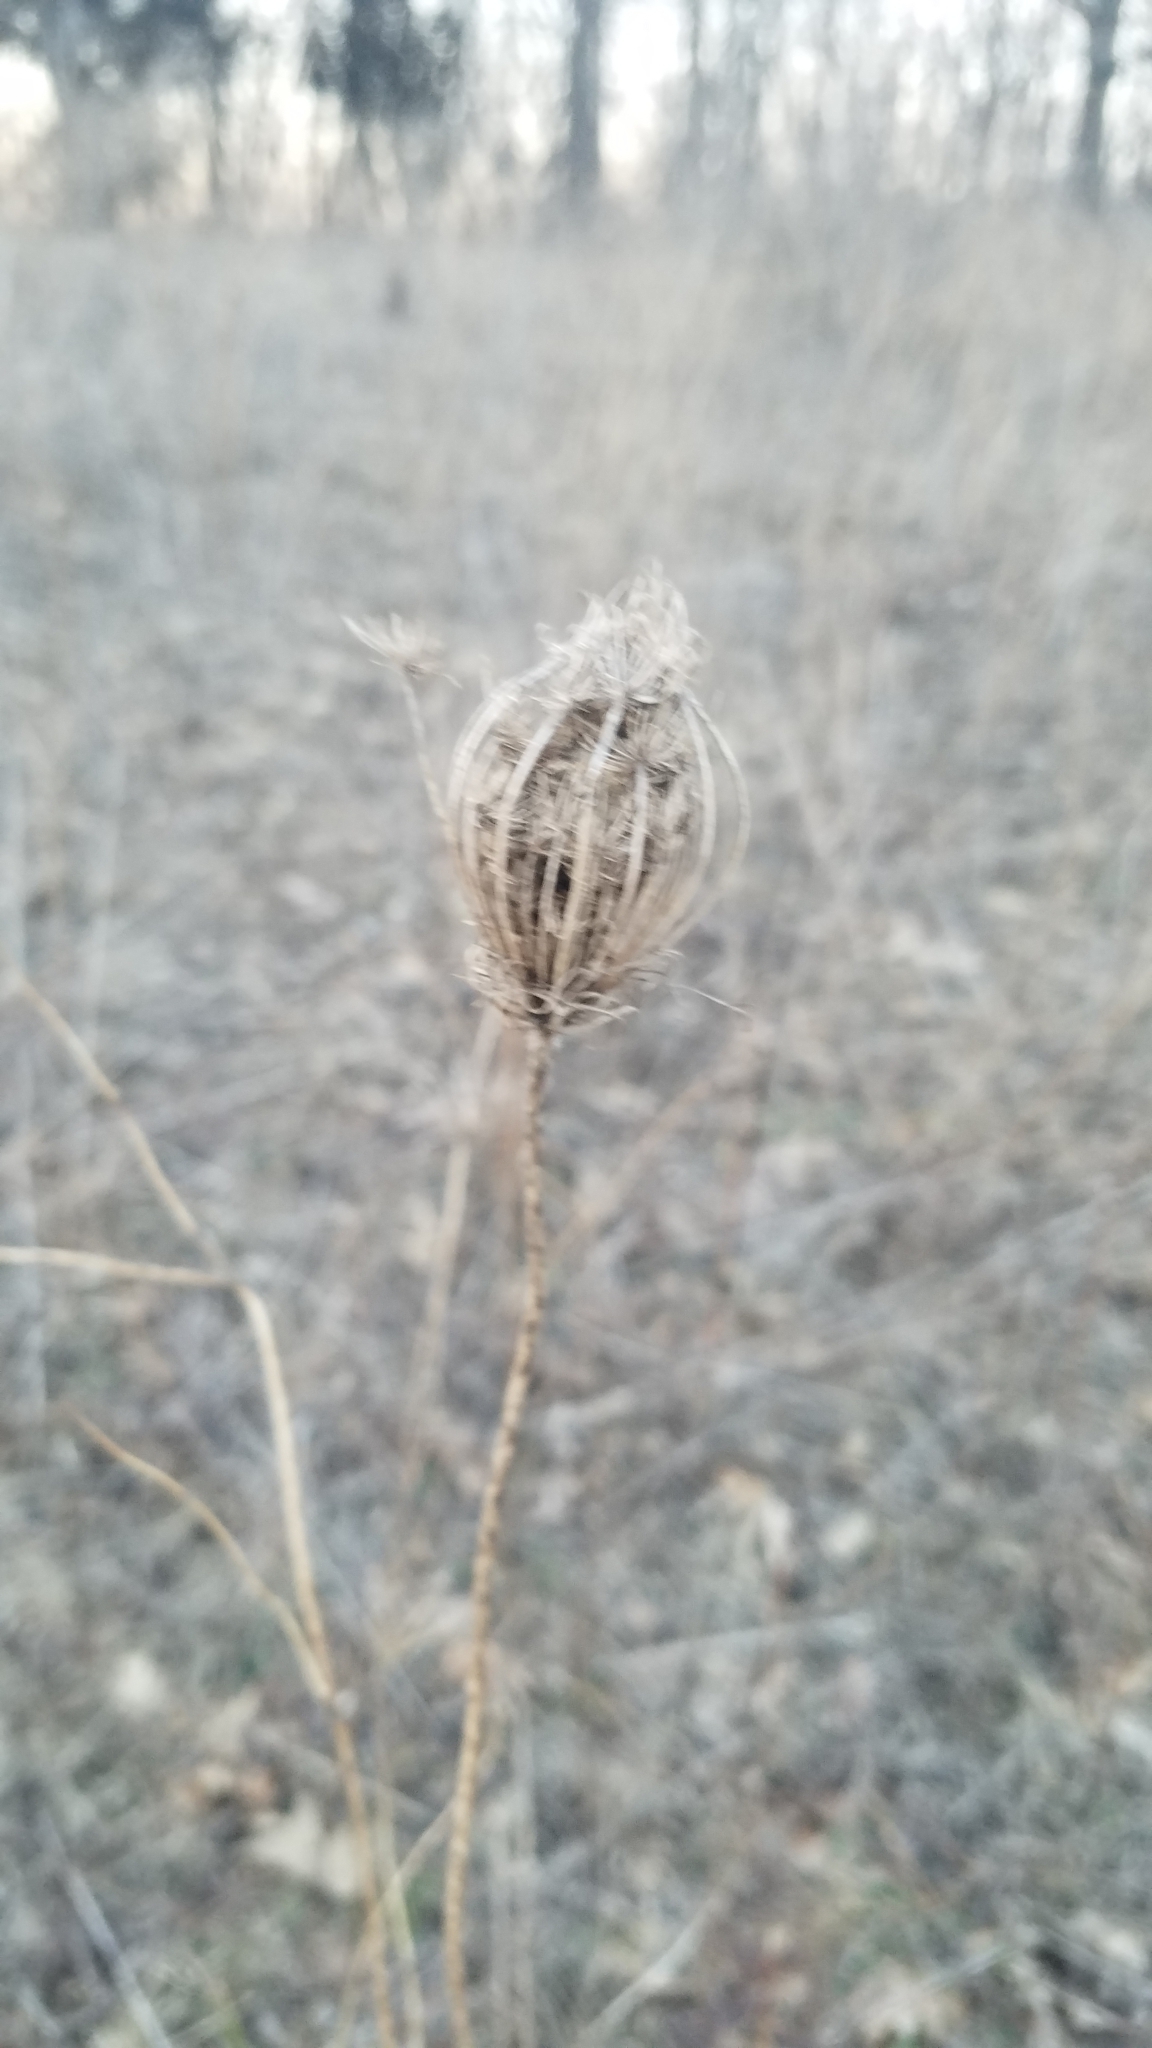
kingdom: Plantae
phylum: Tracheophyta
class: Magnoliopsida
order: Apiales
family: Apiaceae
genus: Daucus
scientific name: Daucus carota
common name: Wild carrot
